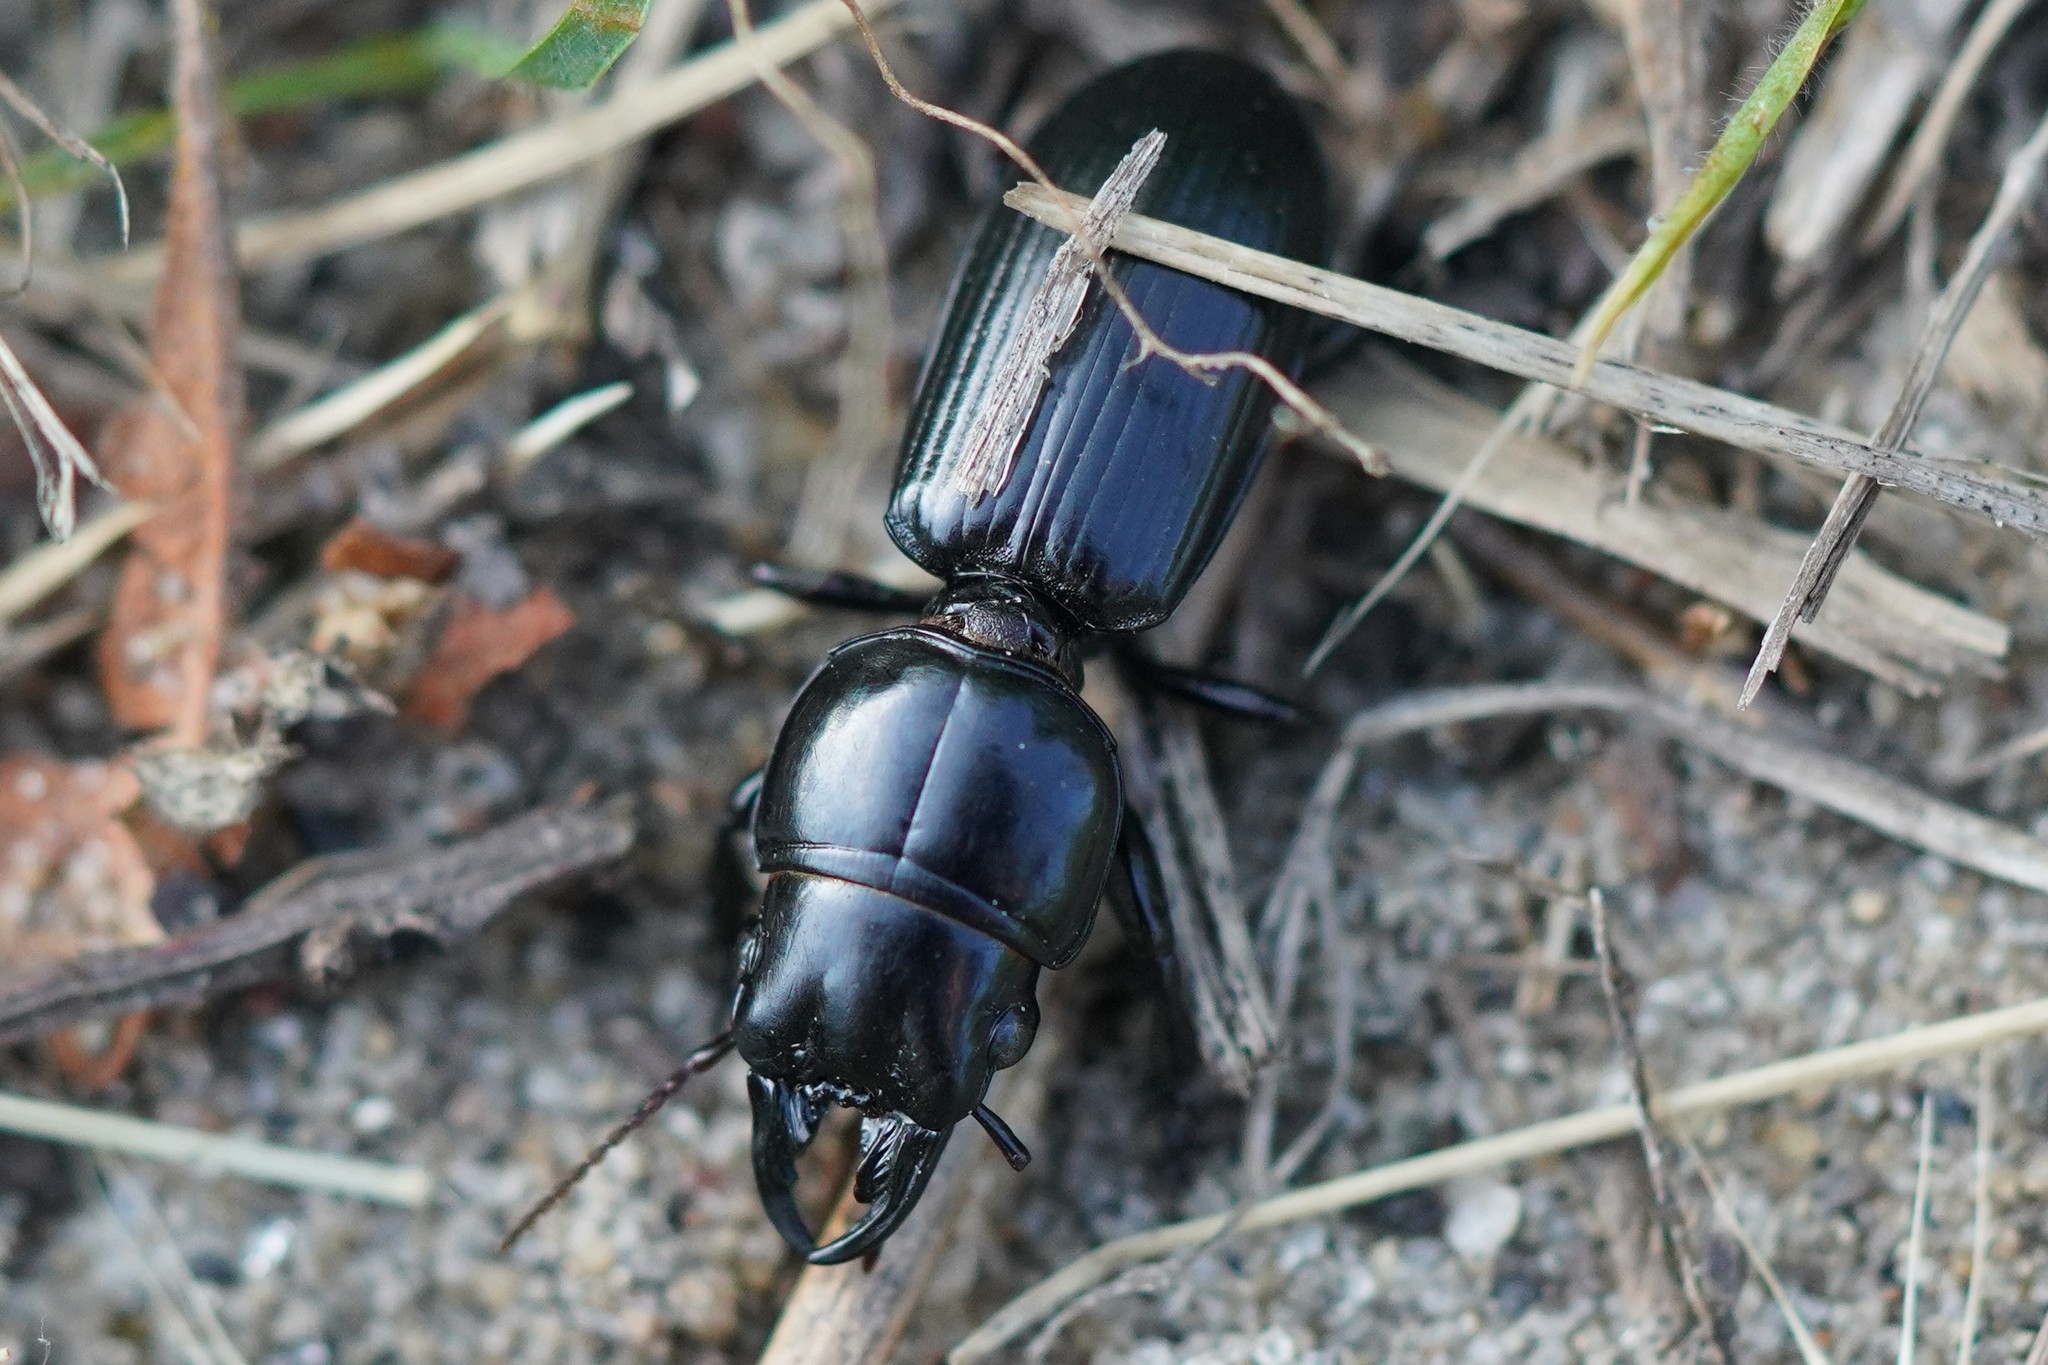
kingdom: Animalia
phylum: Arthropoda
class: Insecta
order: Coleoptera
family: Carabidae
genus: Scarites
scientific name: Scarites subterraneus
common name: Big-headed ground beetle
